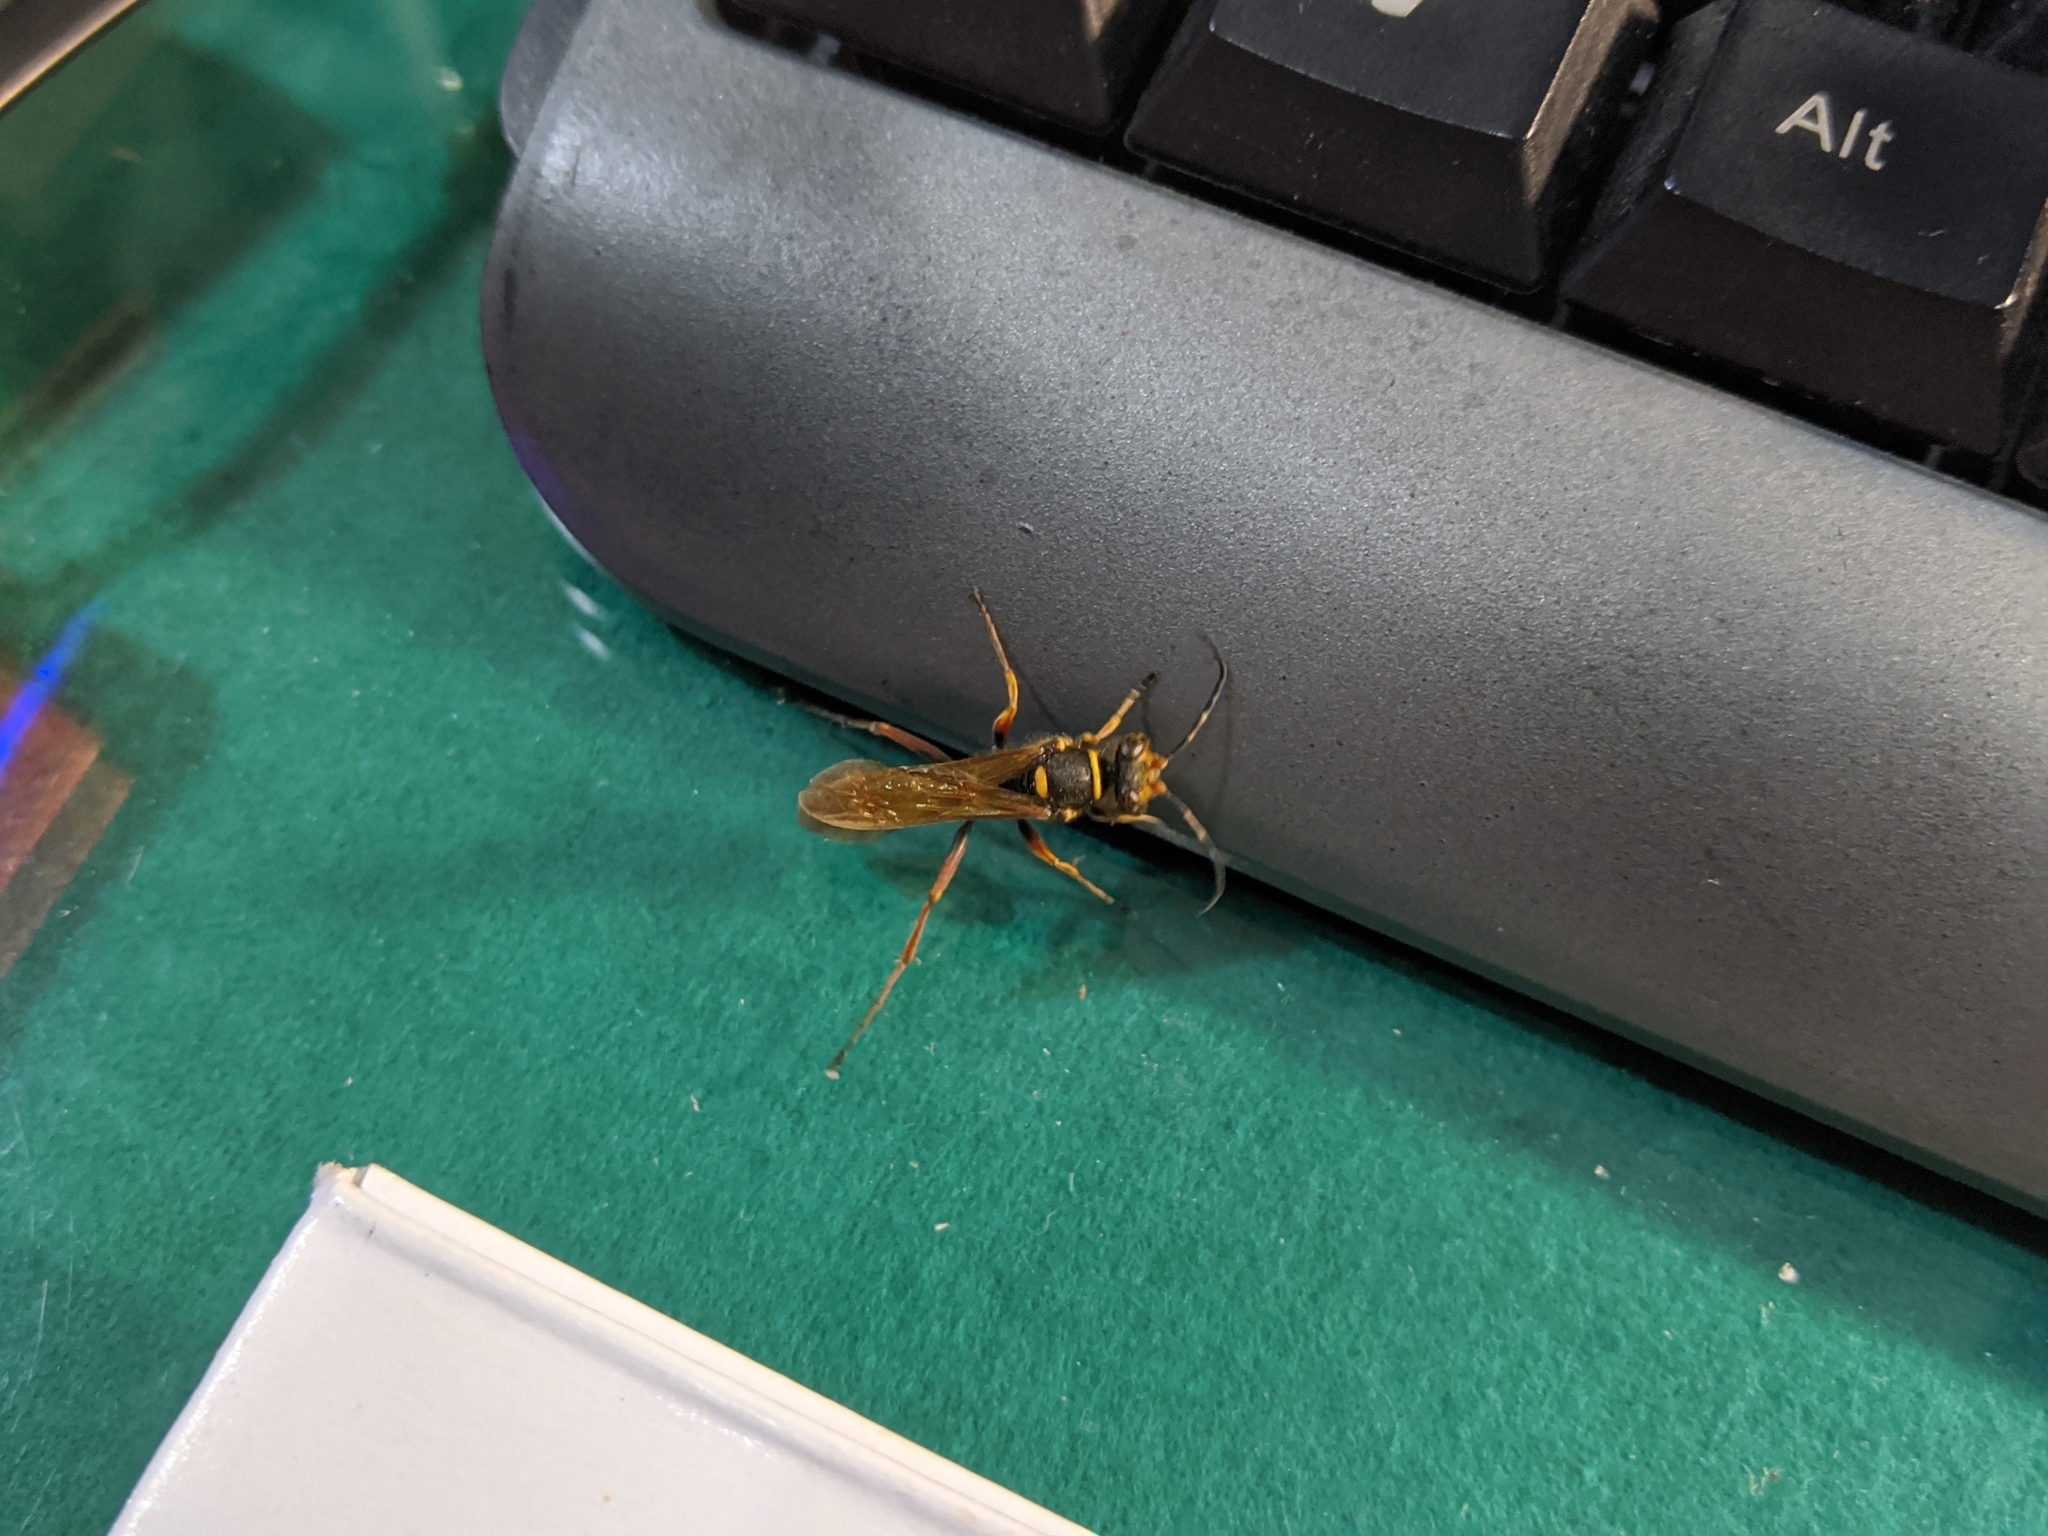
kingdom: Animalia
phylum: Arthropoda
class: Insecta
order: Hymenoptera
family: Sphecidae
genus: Sceliphron
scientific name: Sceliphron deforme
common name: Pelopèe
